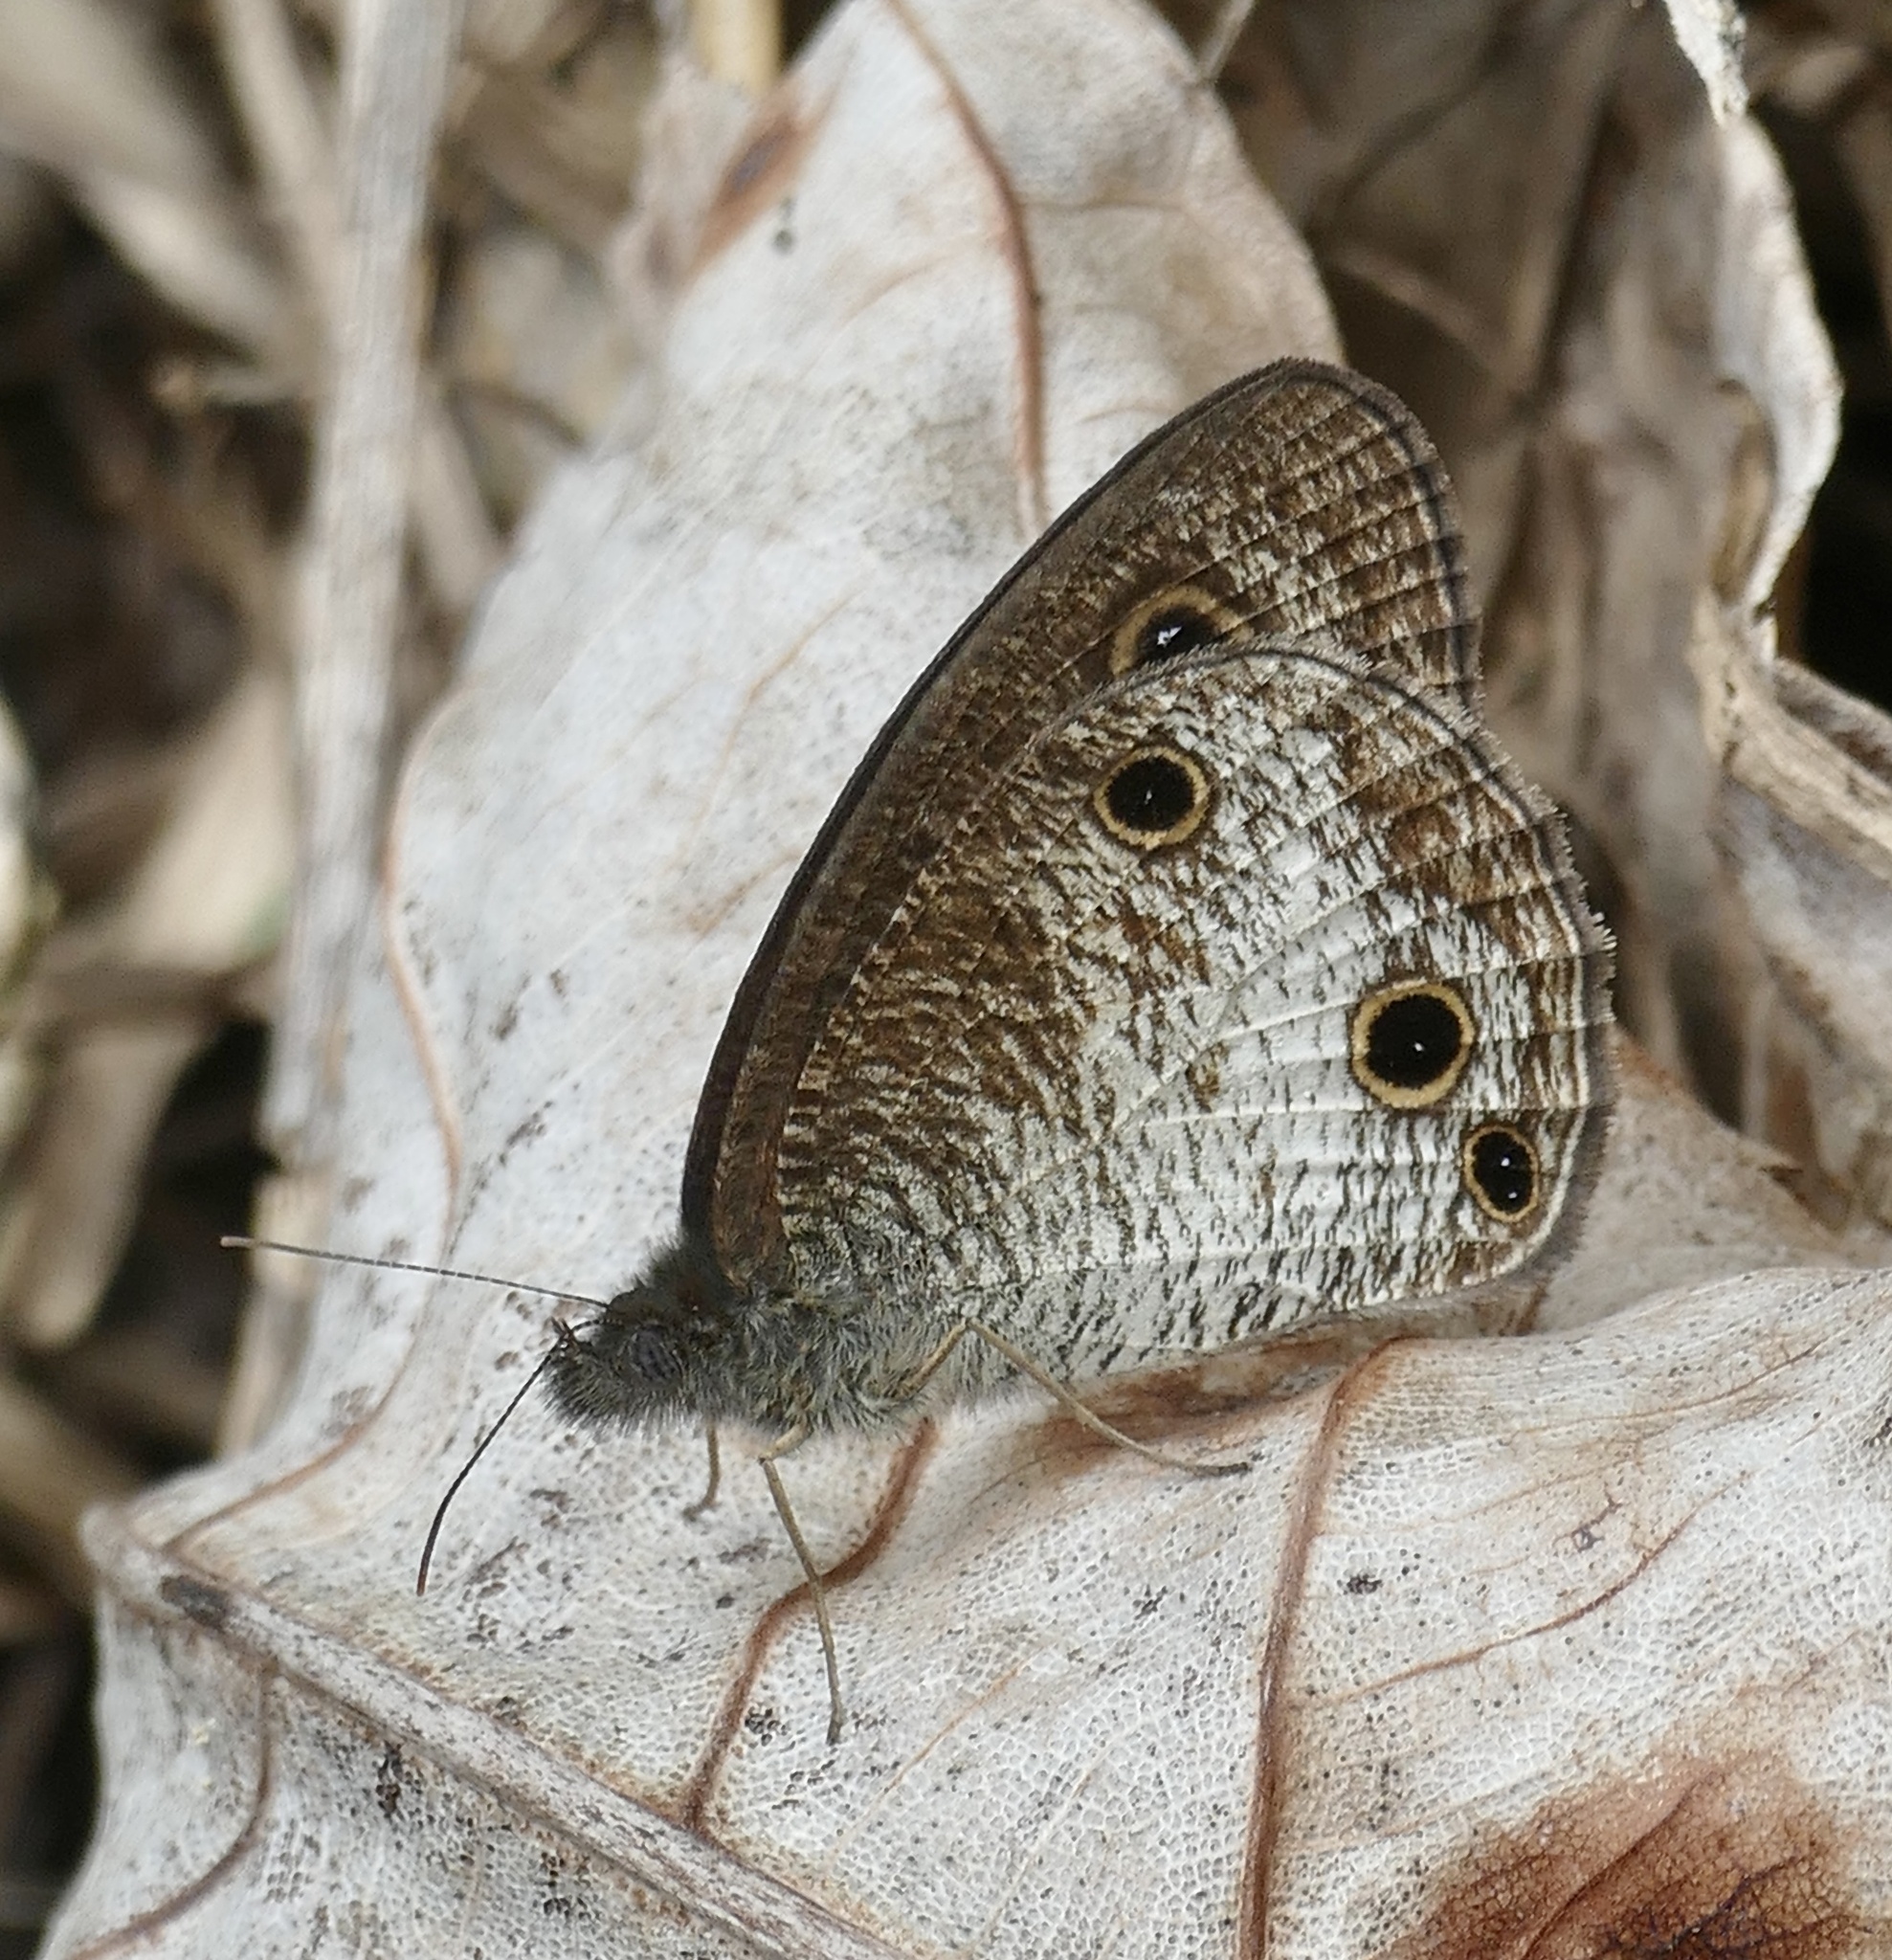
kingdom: Animalia
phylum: Arthropoda
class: Insecta
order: Lepidoptera
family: Nymphalidae
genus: Ypthima
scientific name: Ypthima pandocus
